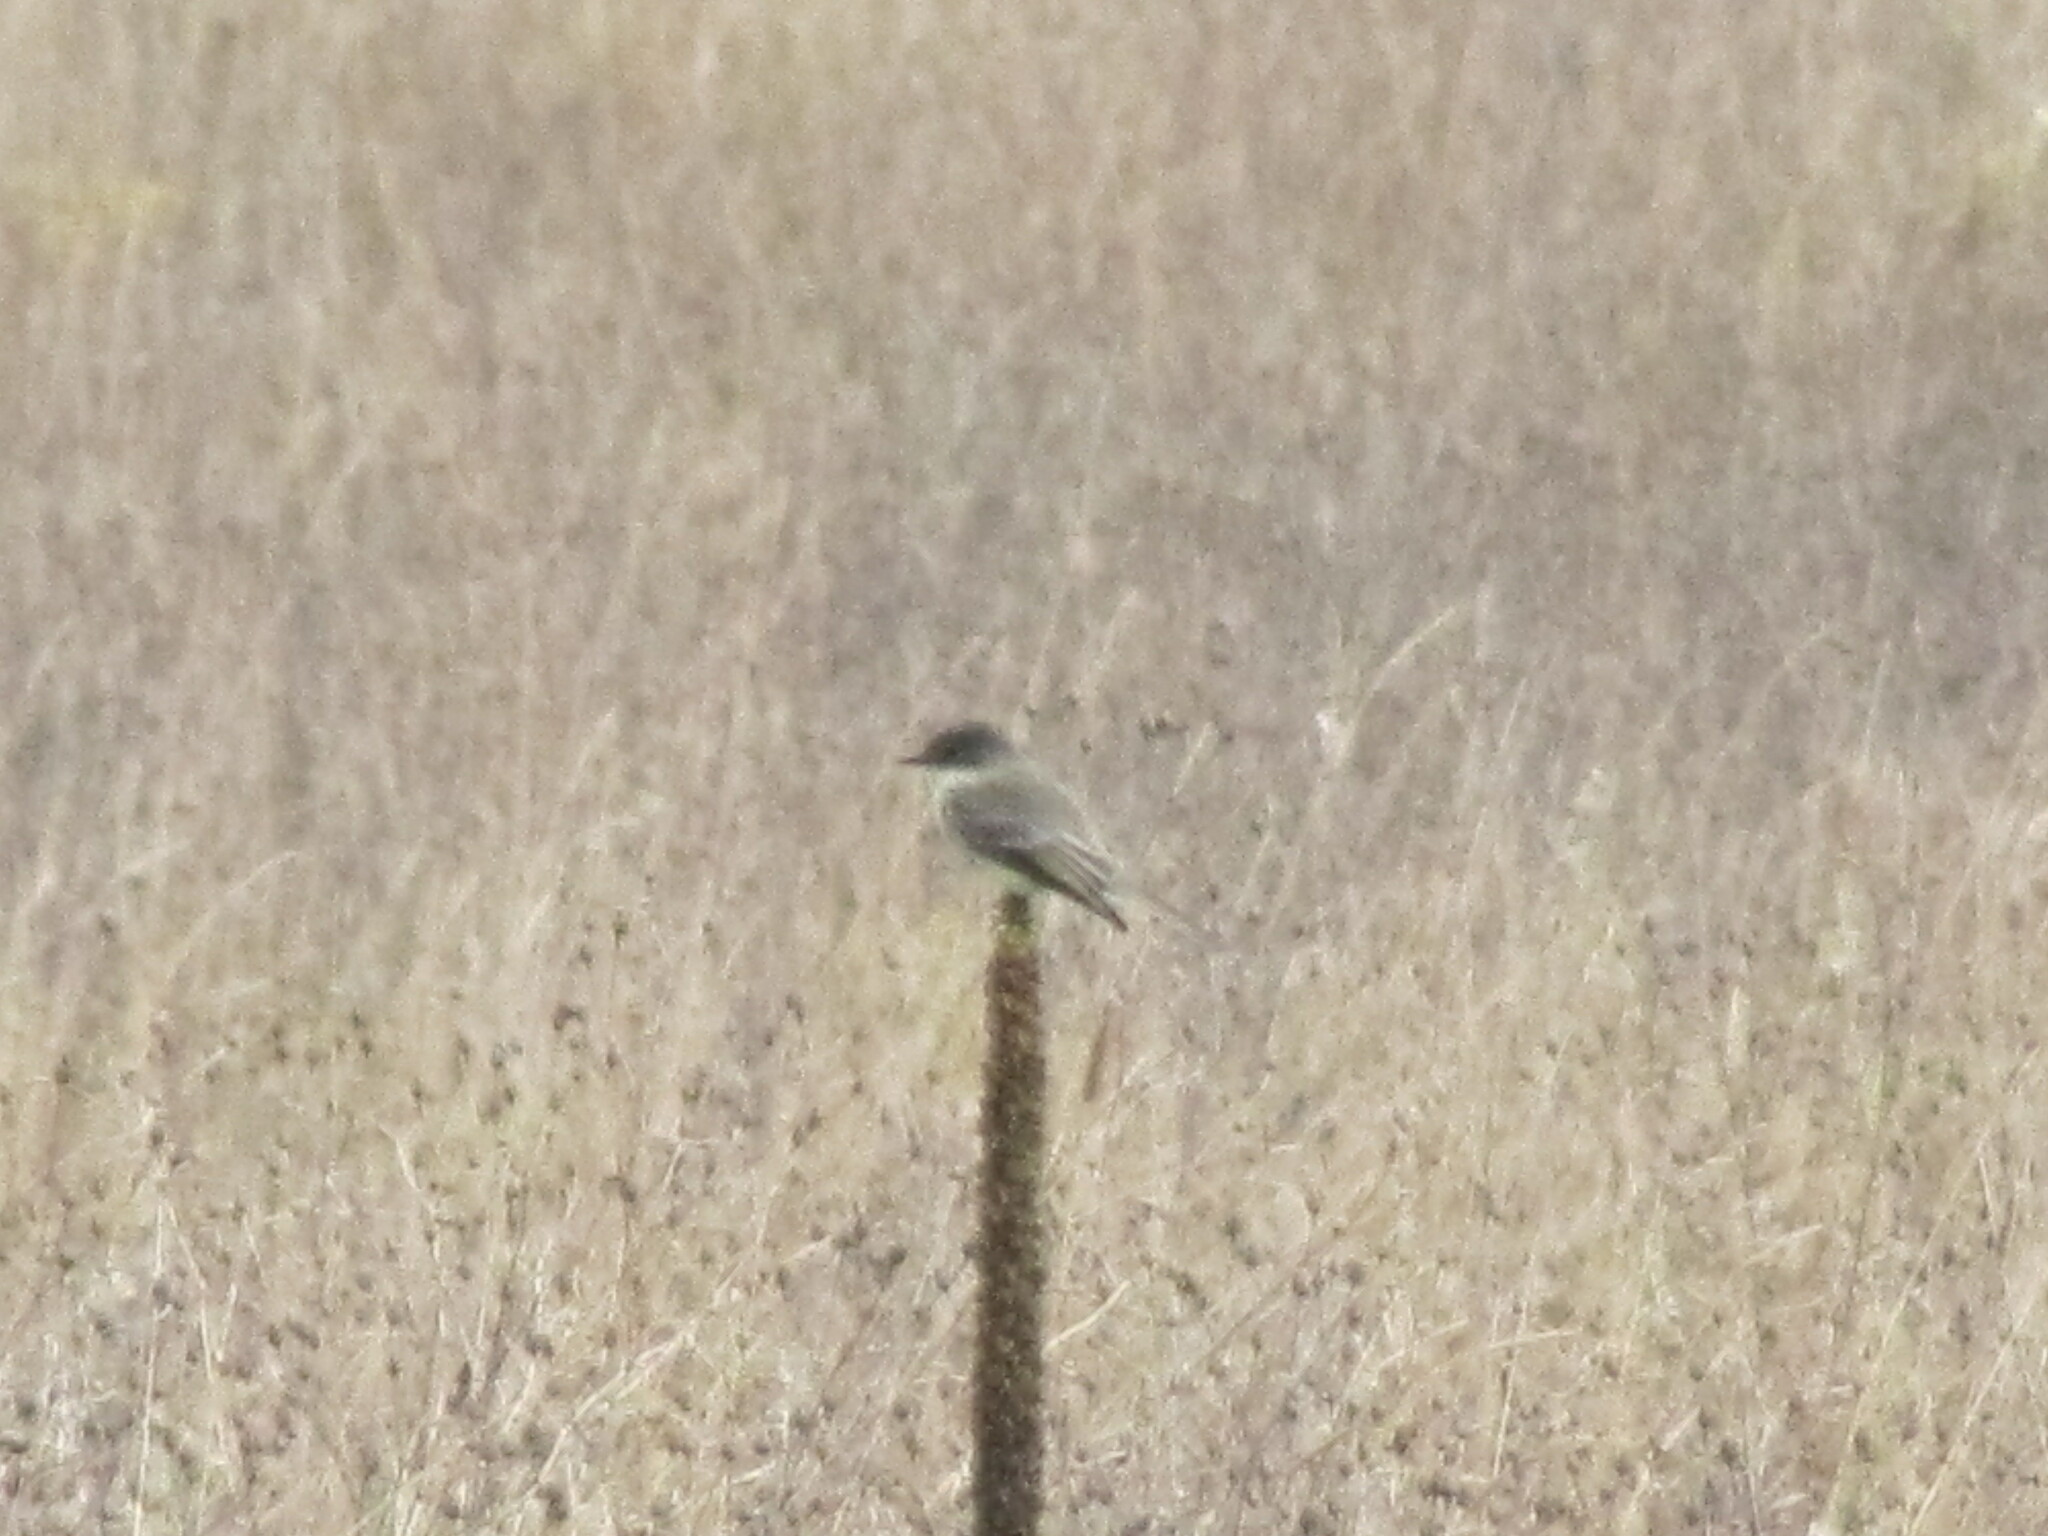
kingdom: Animalia
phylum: Chordata
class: Aves
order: Passeriformes
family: Tyrannidae
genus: Sayornis
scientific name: Sayornis phoebe
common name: Eastern phoebe
